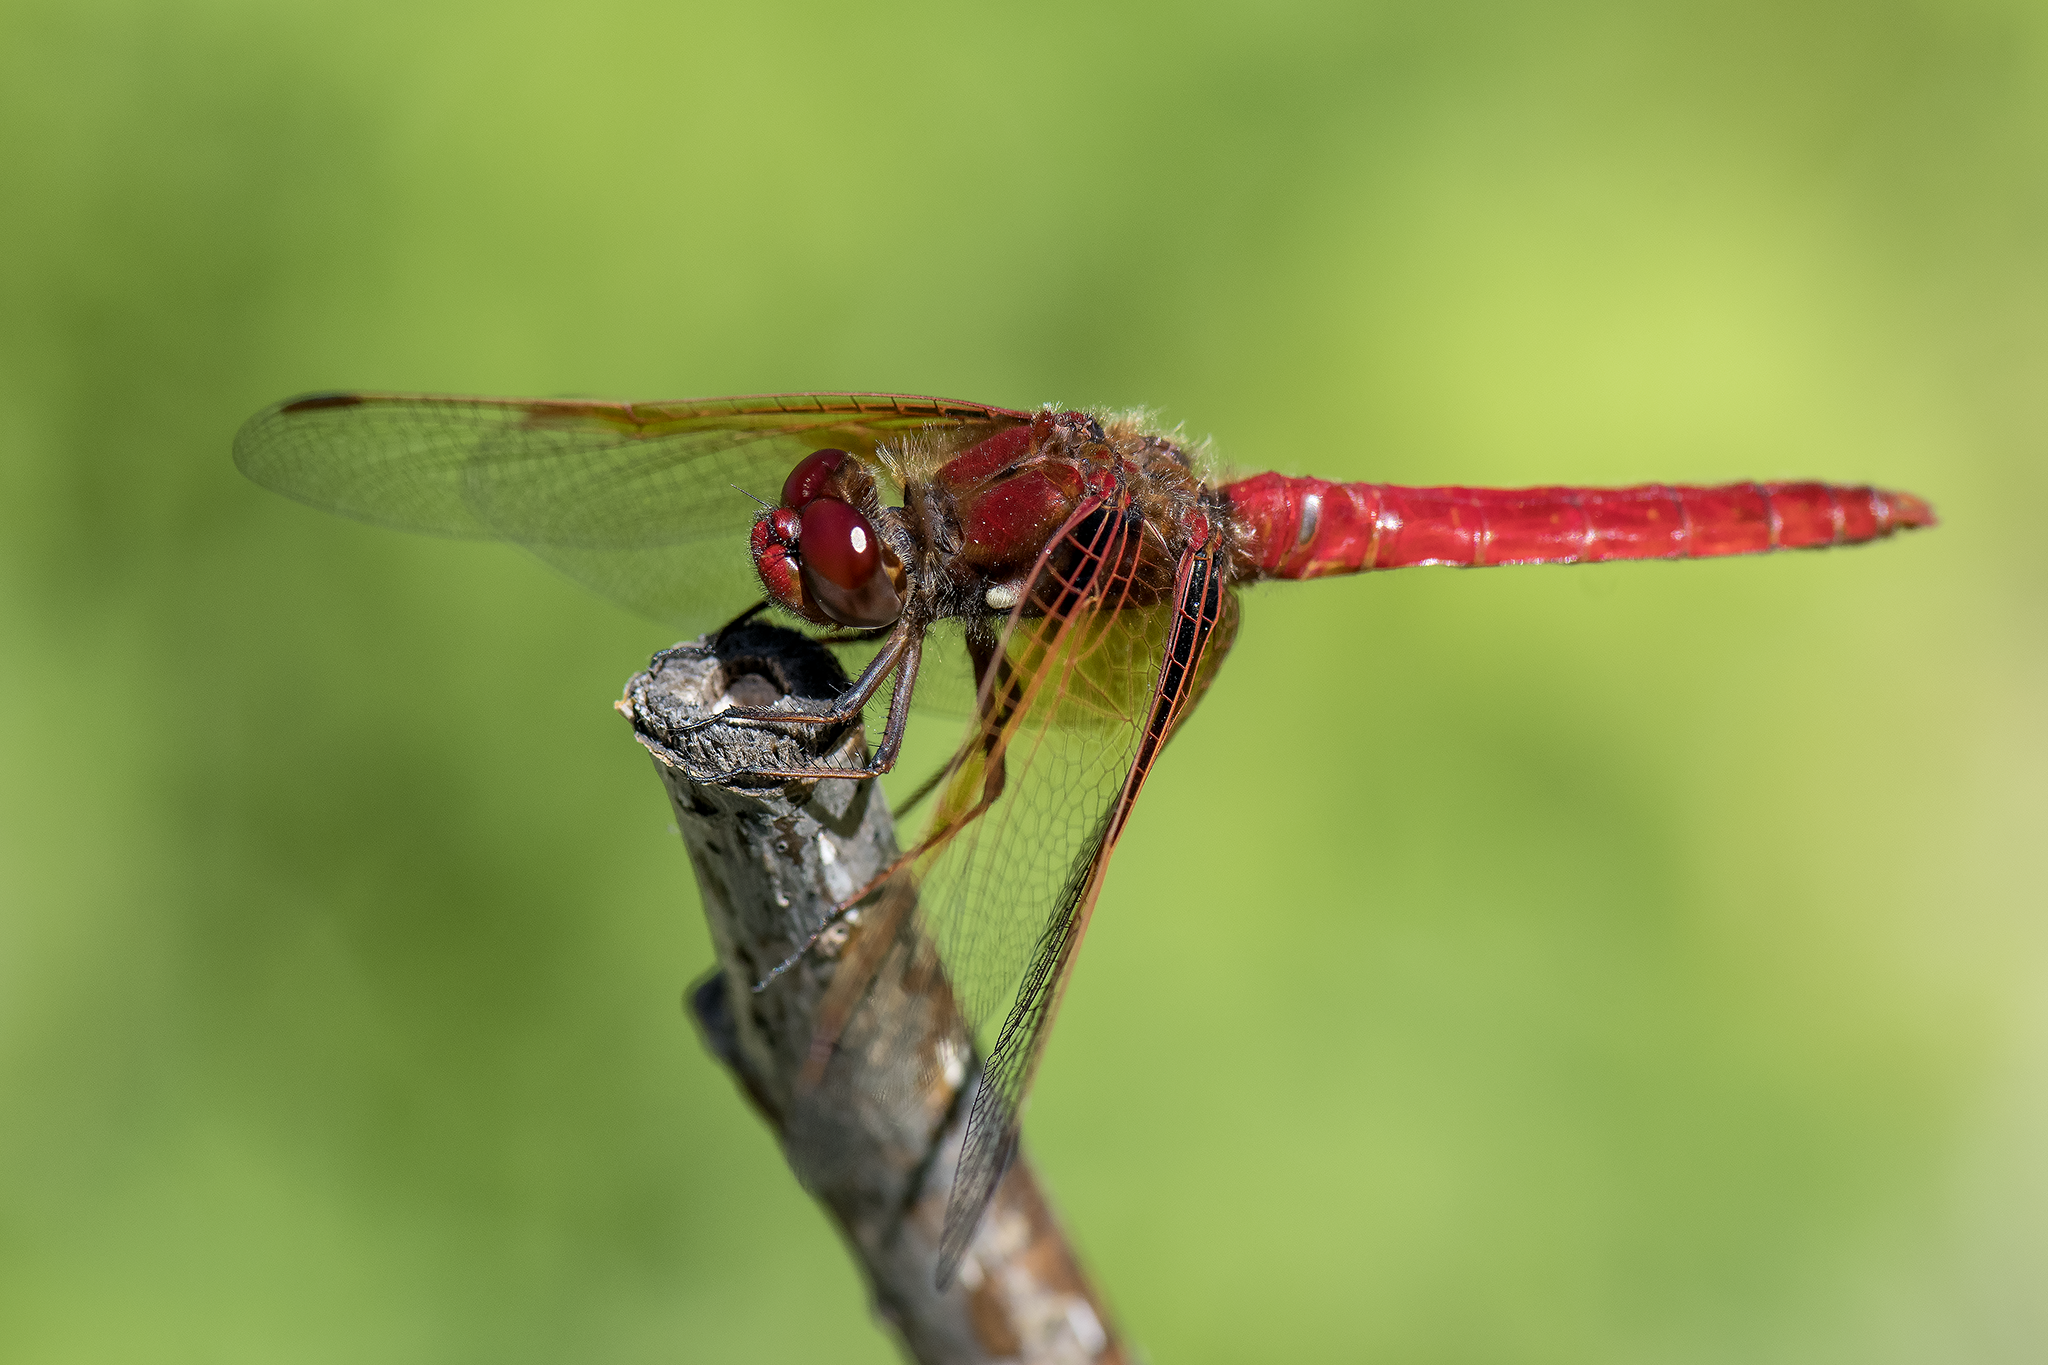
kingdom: Animalia
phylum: Arthropoda
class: Insecta
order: Odonata
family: Libellulidae
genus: Sympetrum
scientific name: Sympetrum illotum
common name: Cardinal meadowhawk
